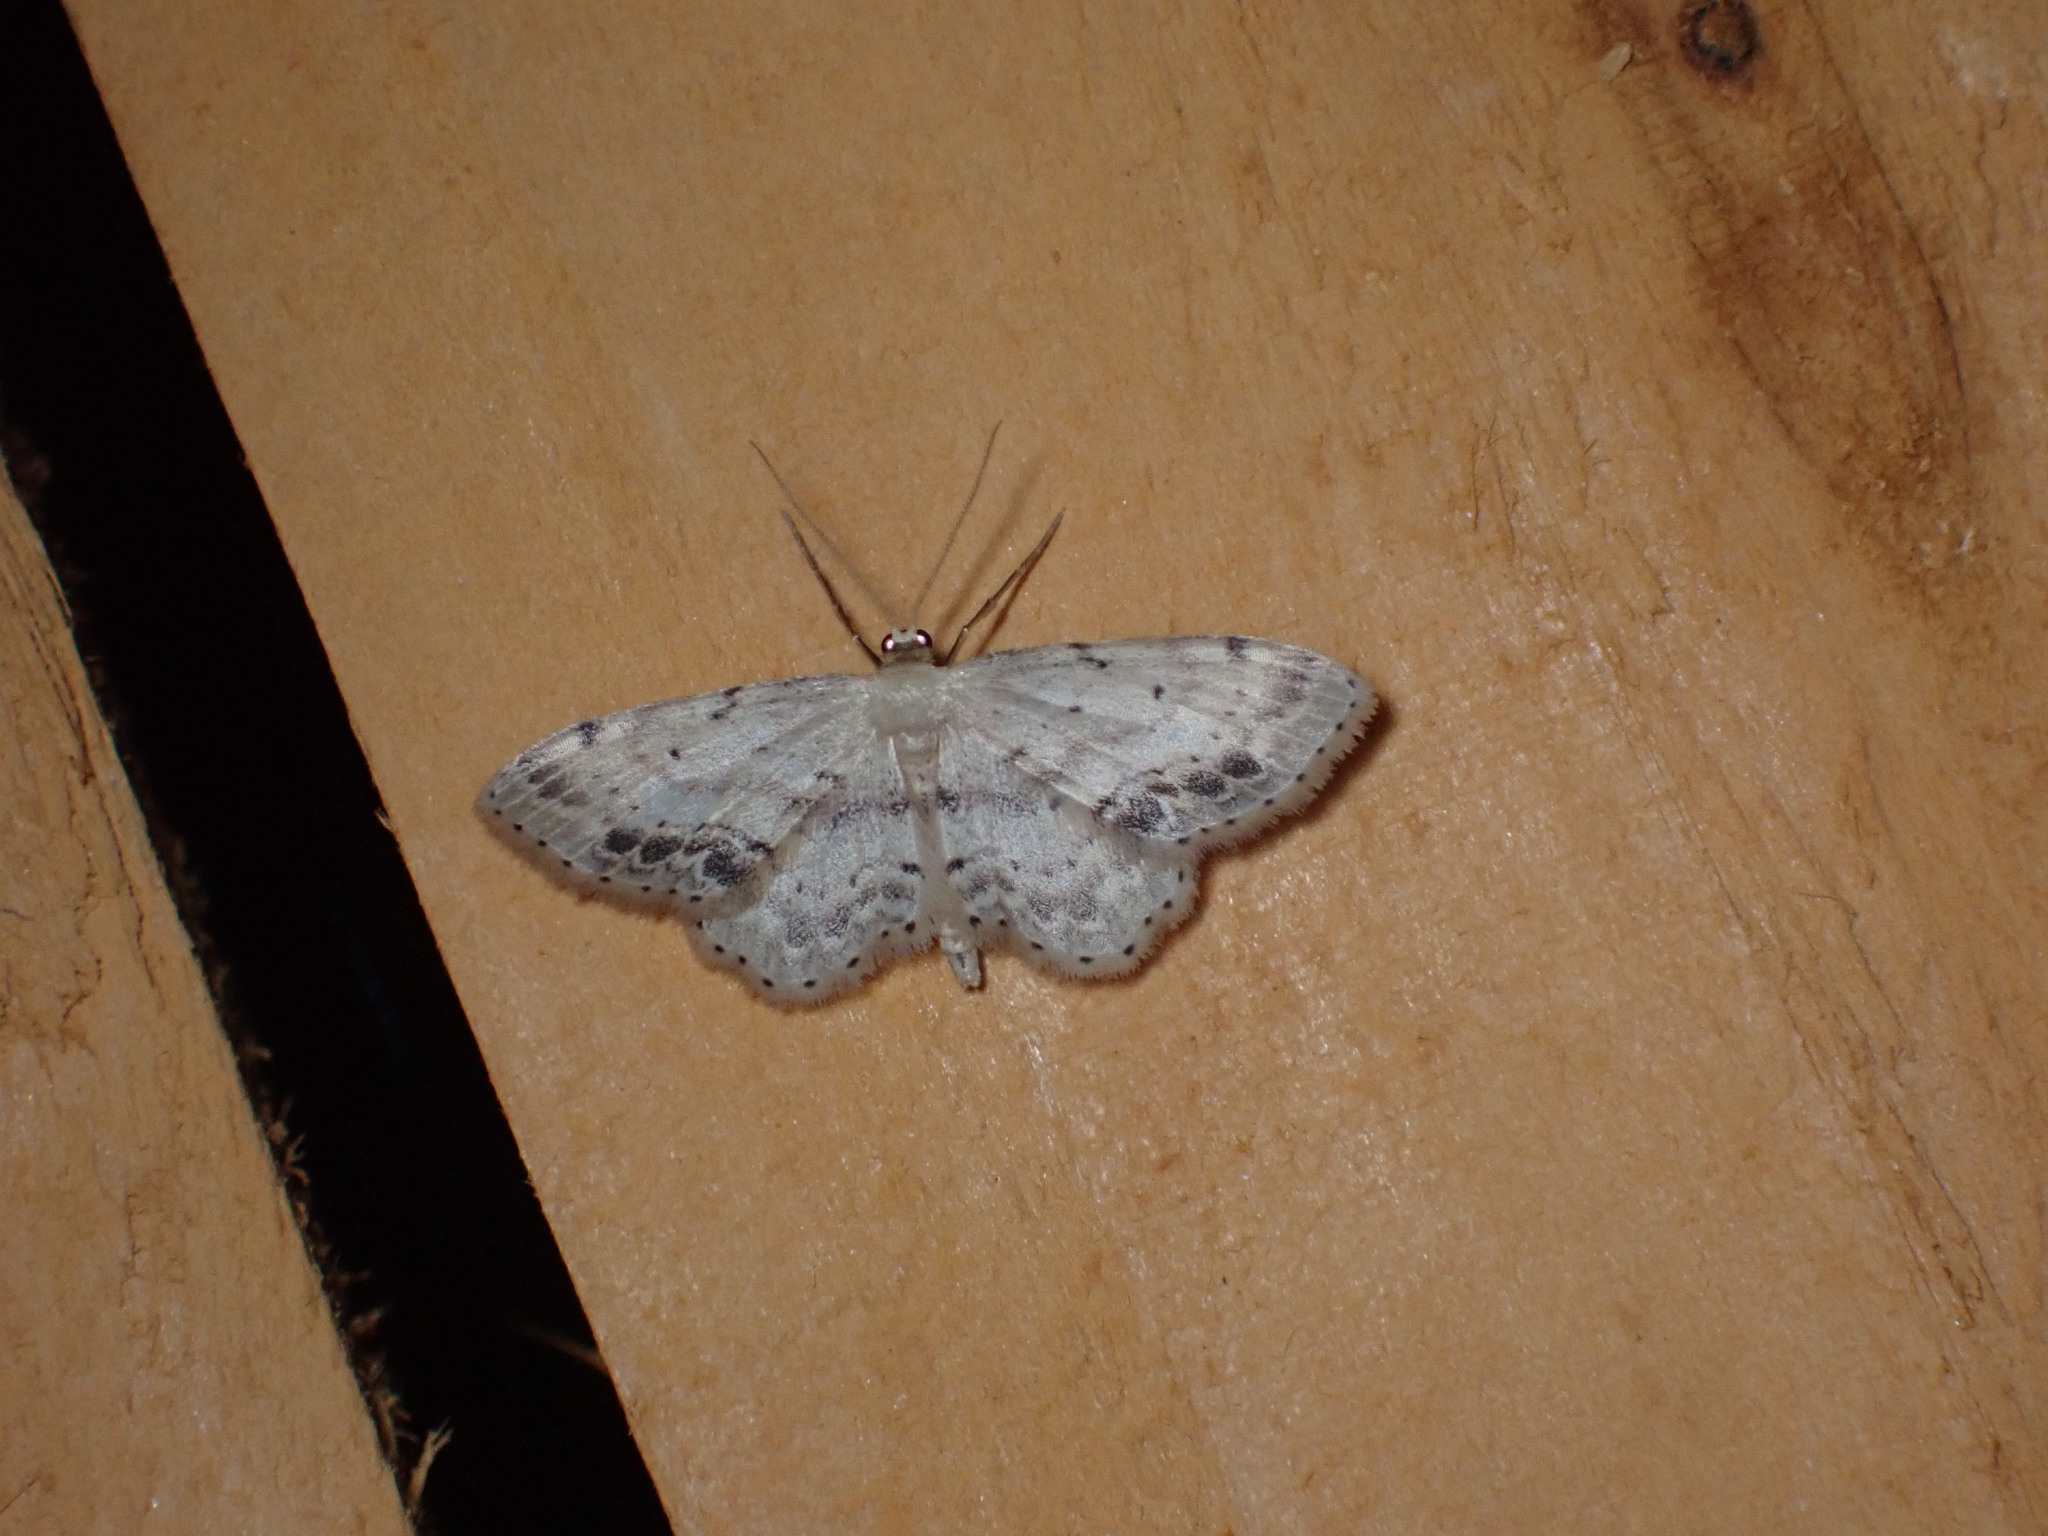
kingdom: Animalia
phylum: Arthropoda
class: Insecta
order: Lepidoptera
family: Geometridae
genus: Idaea
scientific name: Idaea dimidiata
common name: Single-dotted wave
